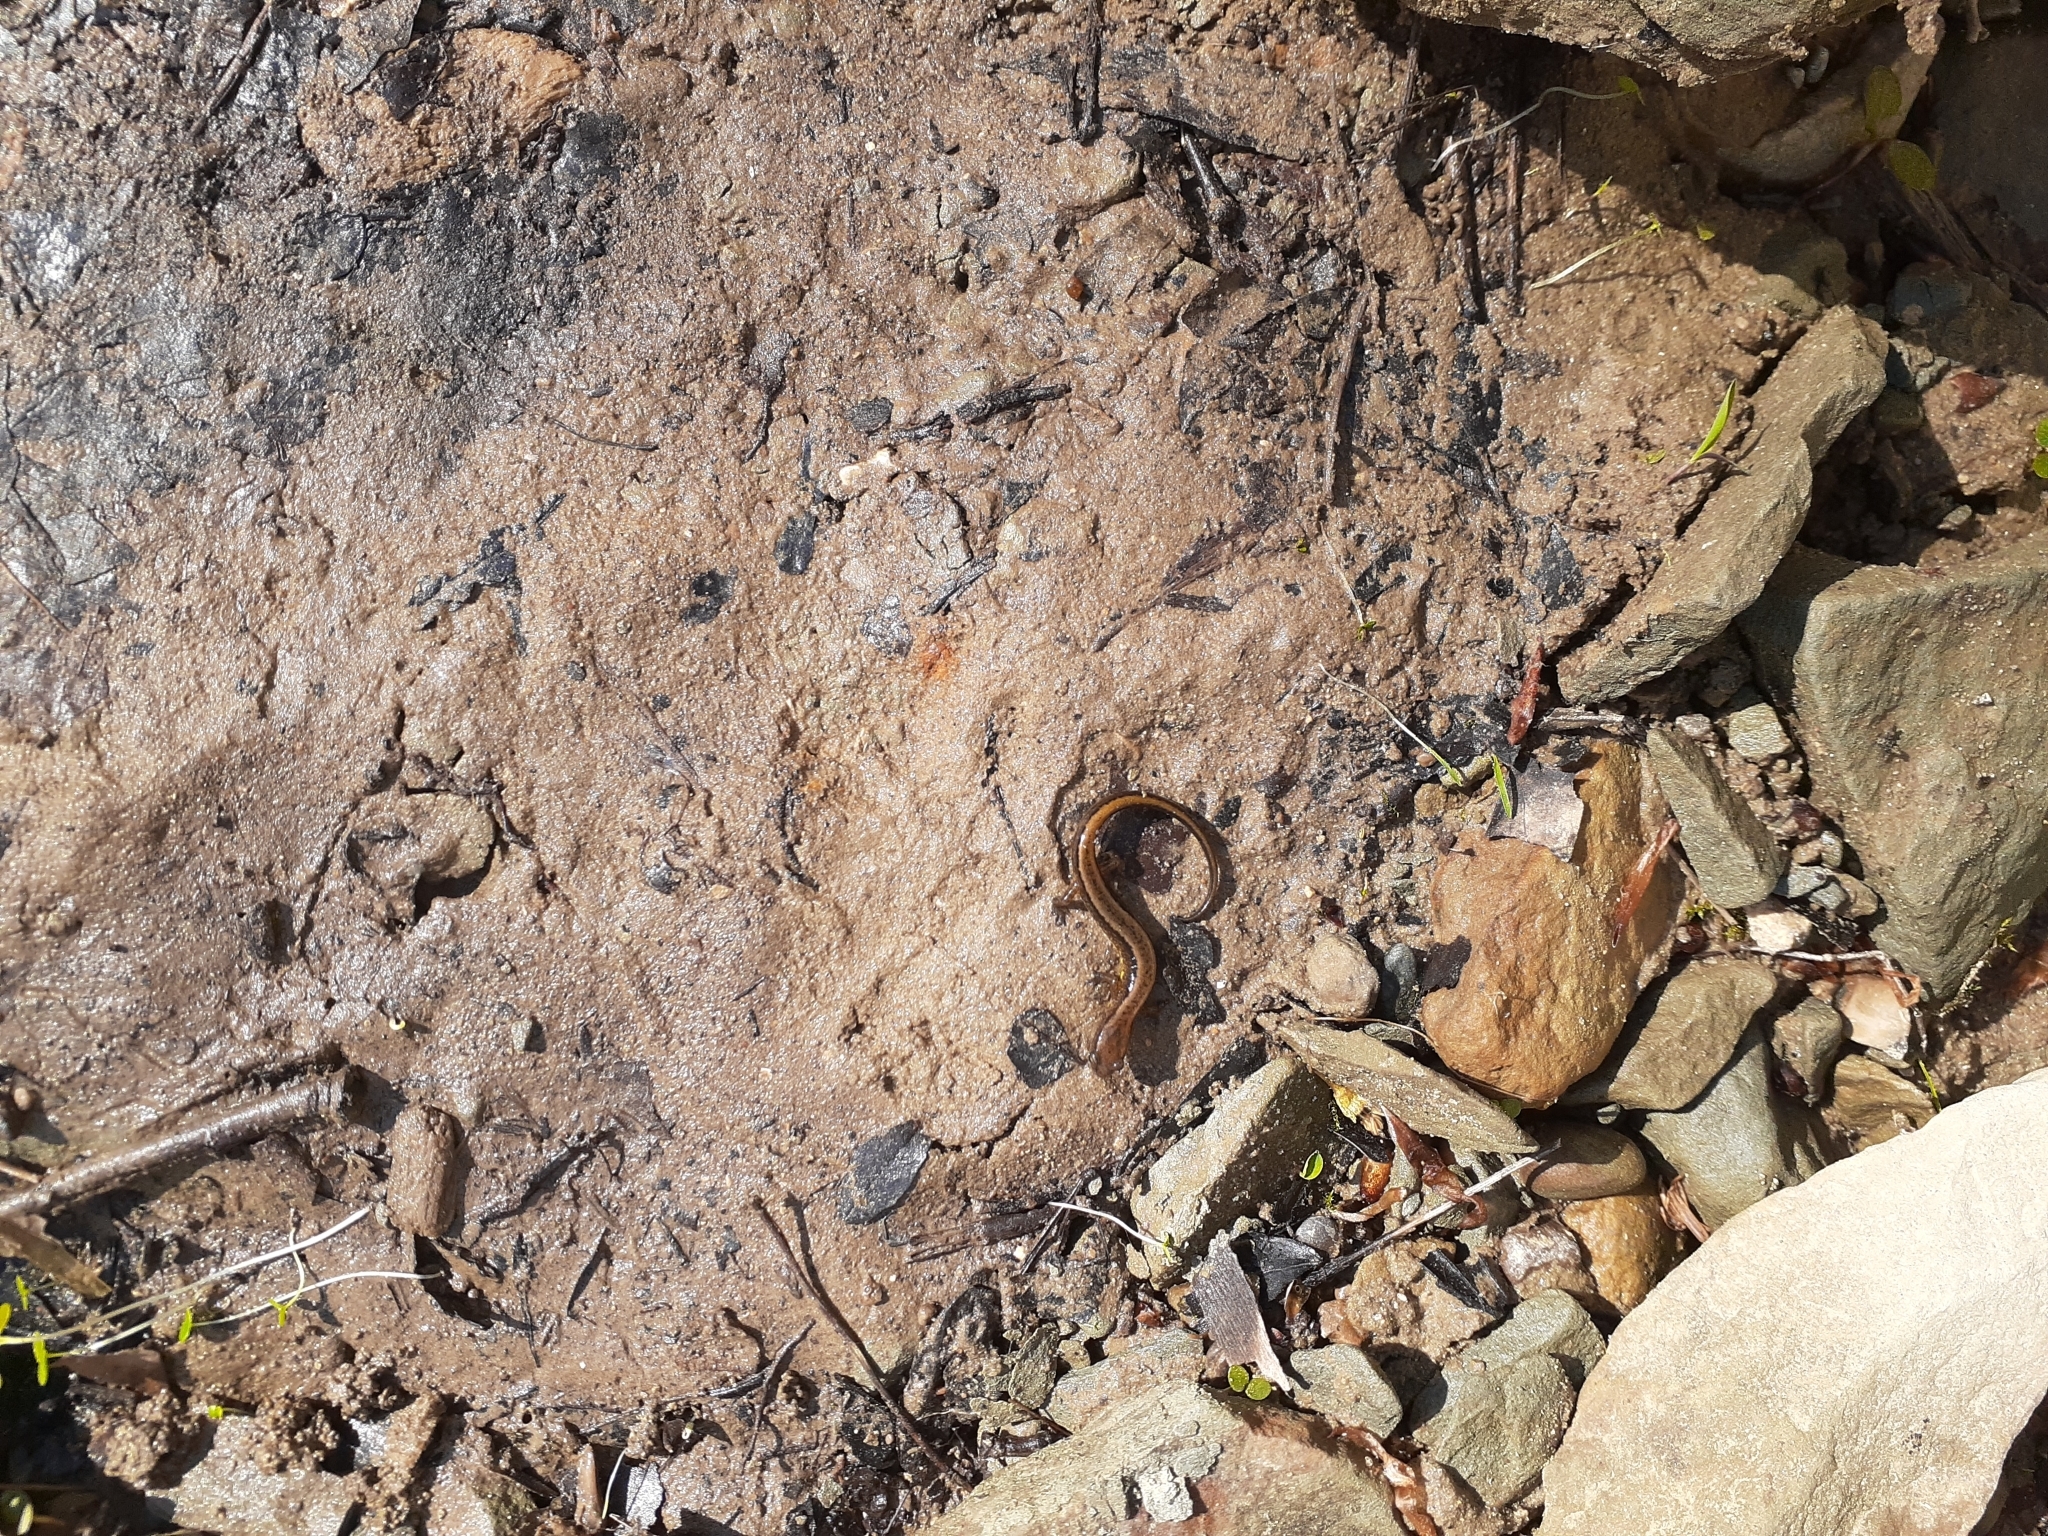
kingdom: Animalia
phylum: Chordata
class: Amphibia
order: Caudata
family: Plethodontidae
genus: Eurycea
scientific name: Eurycea cirrigera
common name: Southern two-lined salamander
